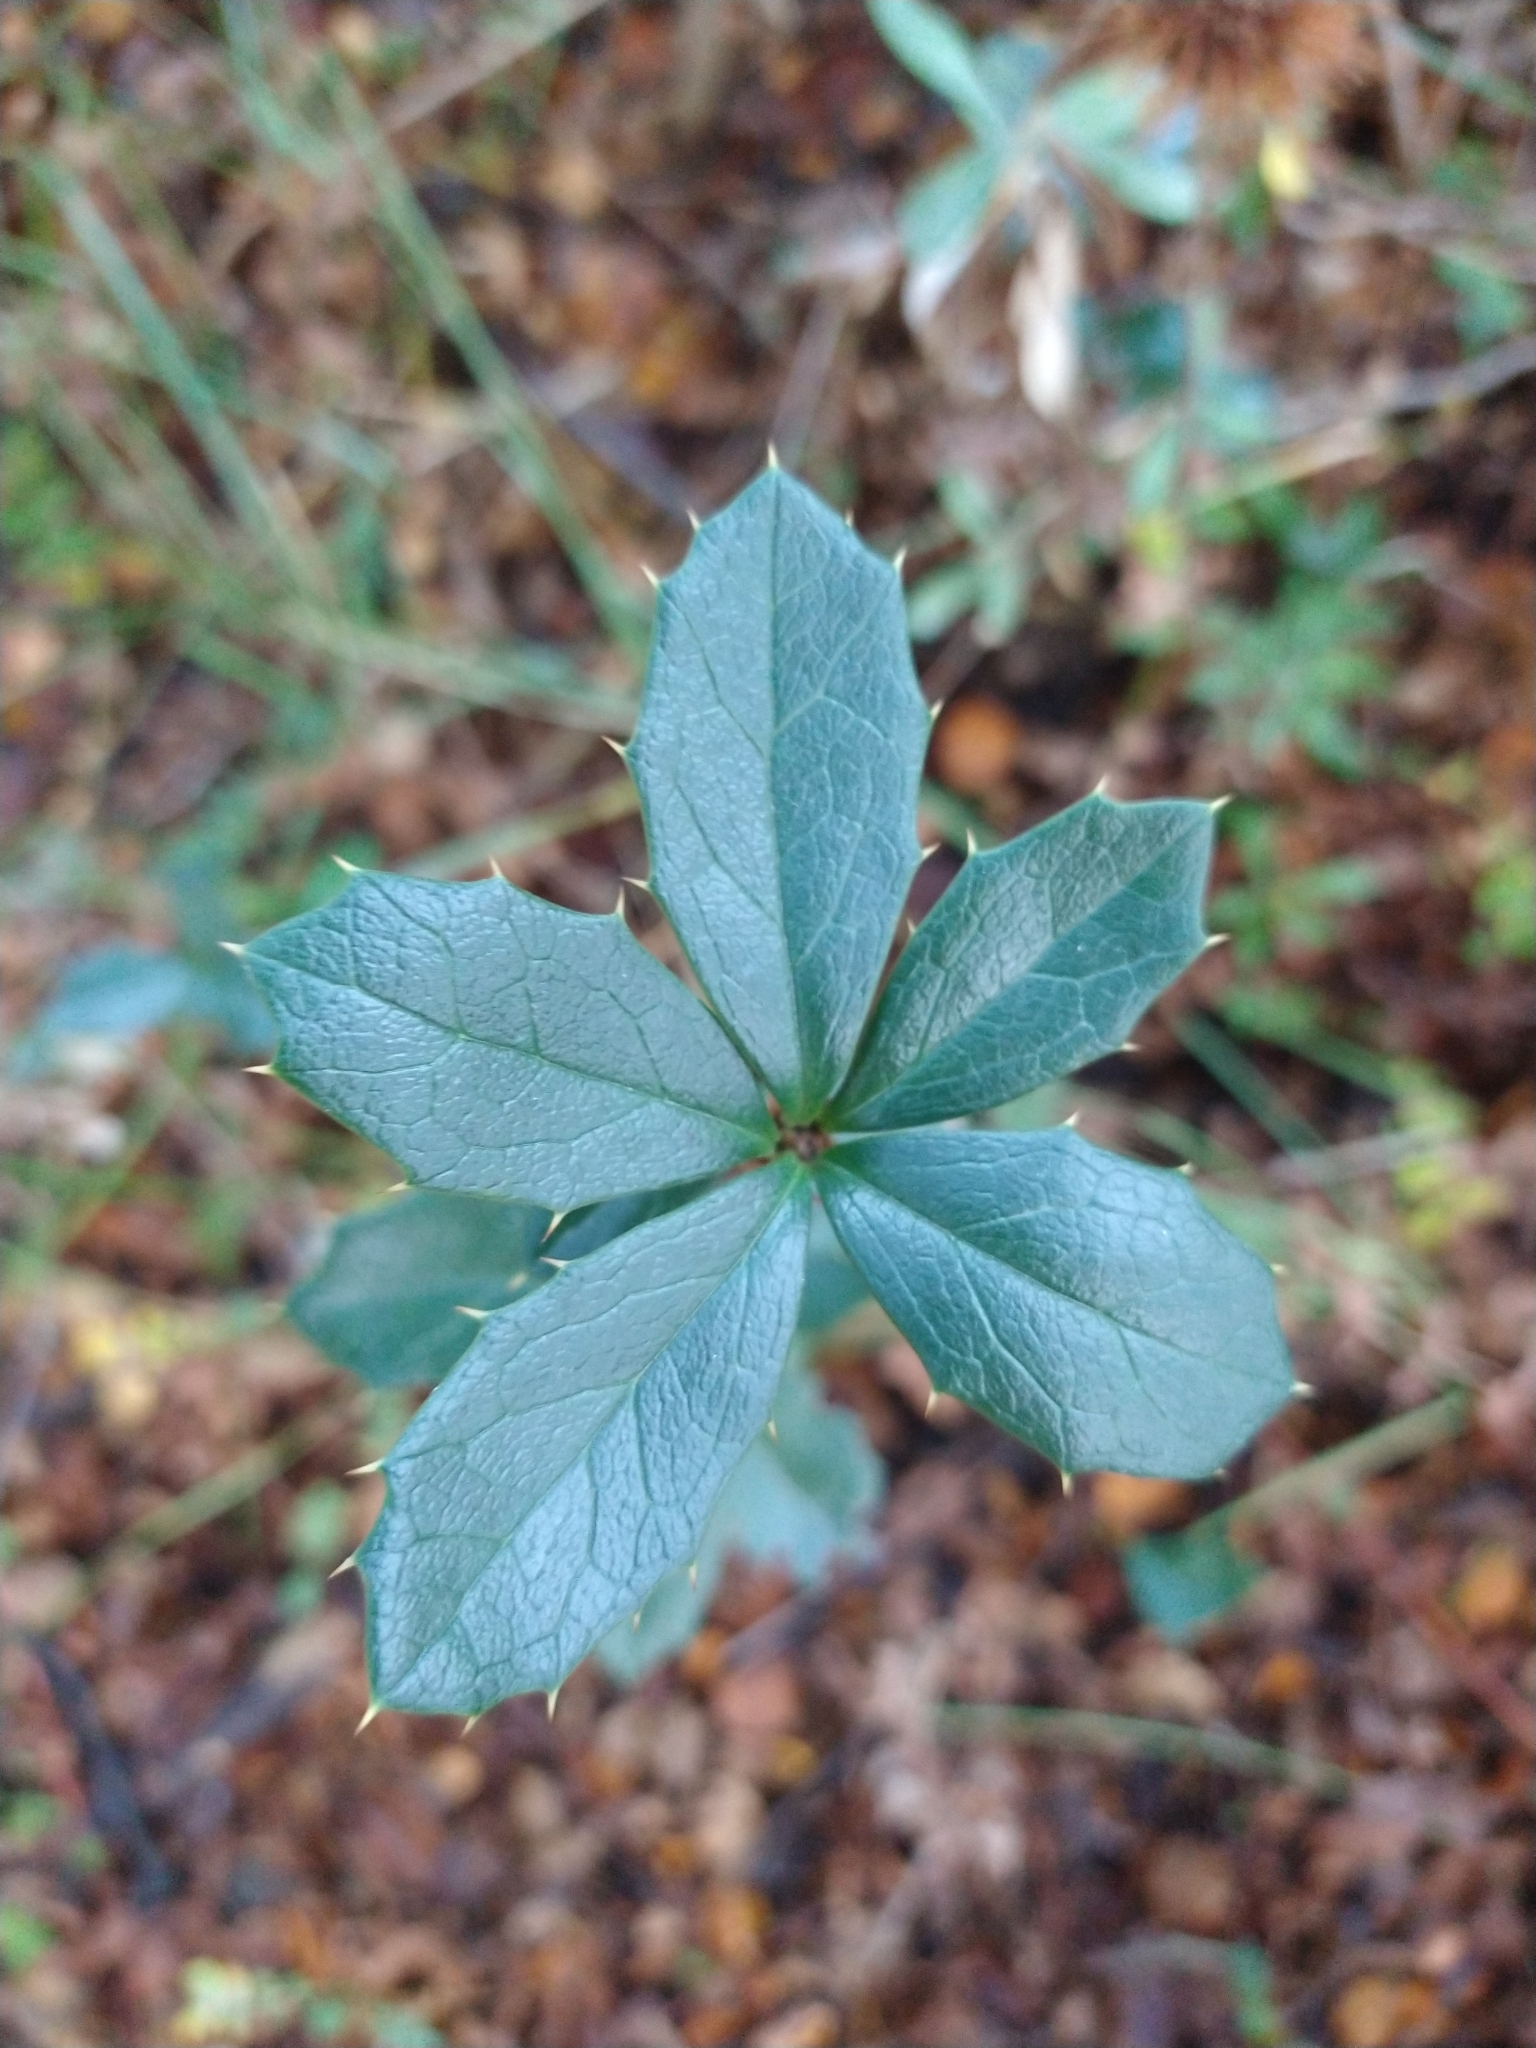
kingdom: Plantae
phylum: Tracheophyta
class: Magnoliopsida
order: Ranunculales
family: Berberidaceae
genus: Berberis
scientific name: Berberis ilicifolia
